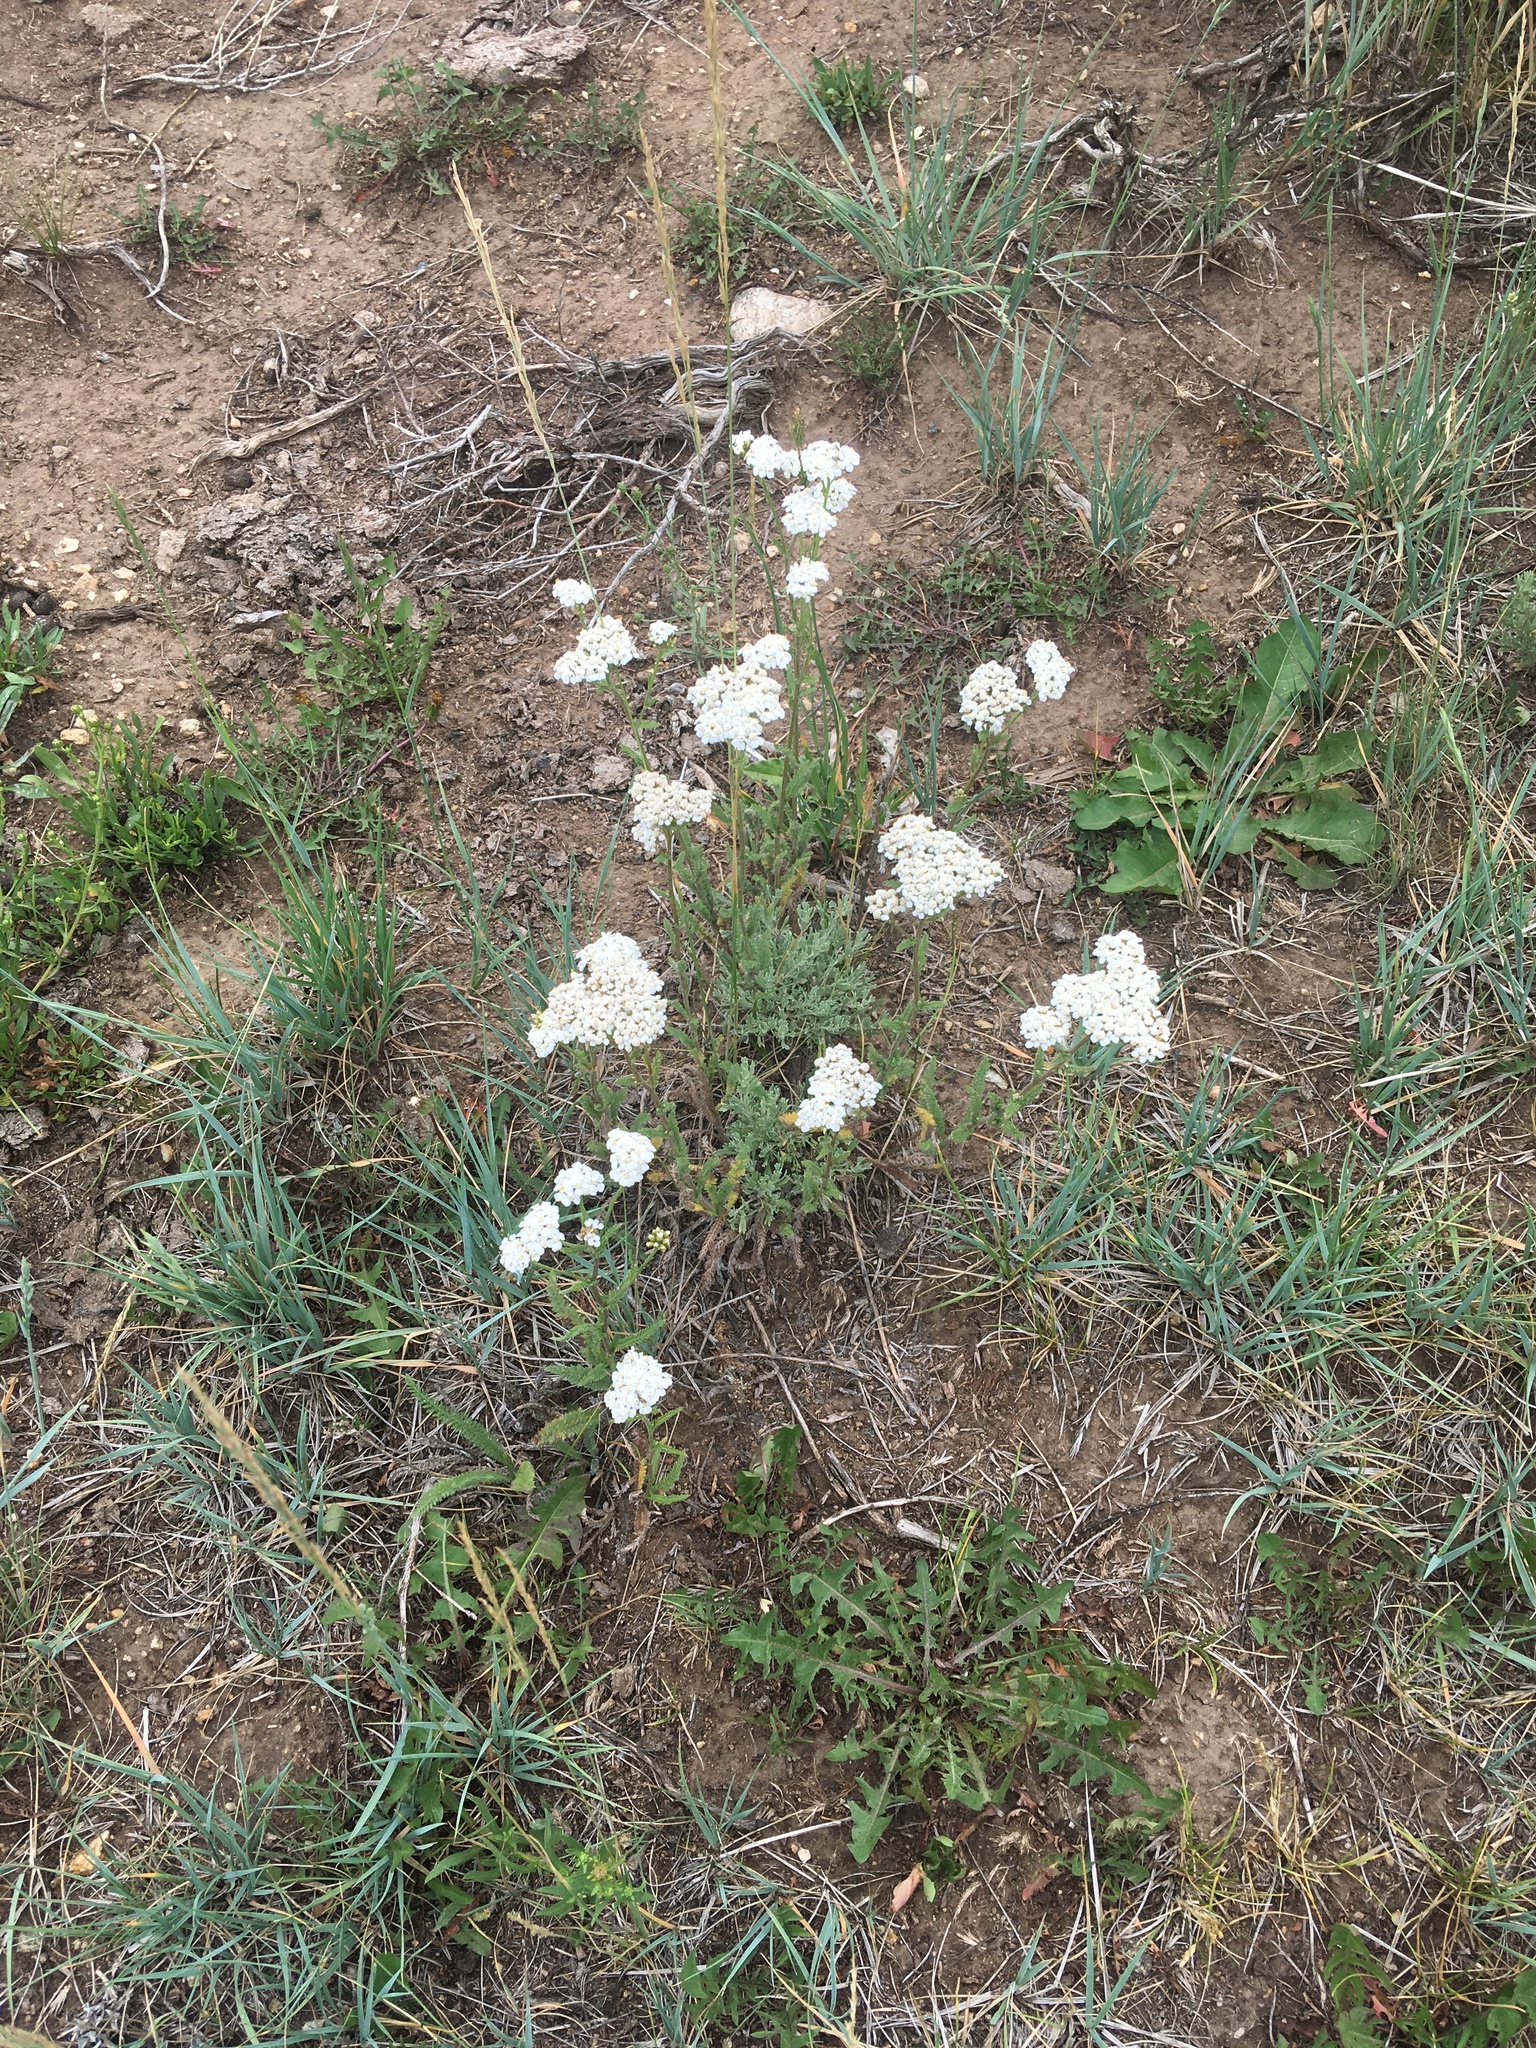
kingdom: Plantae
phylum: Tracheophyta
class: Magnoliopsida
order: Asterales
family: Asteraceae
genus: Achillea
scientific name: Achillea millefolium
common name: Yarrow
